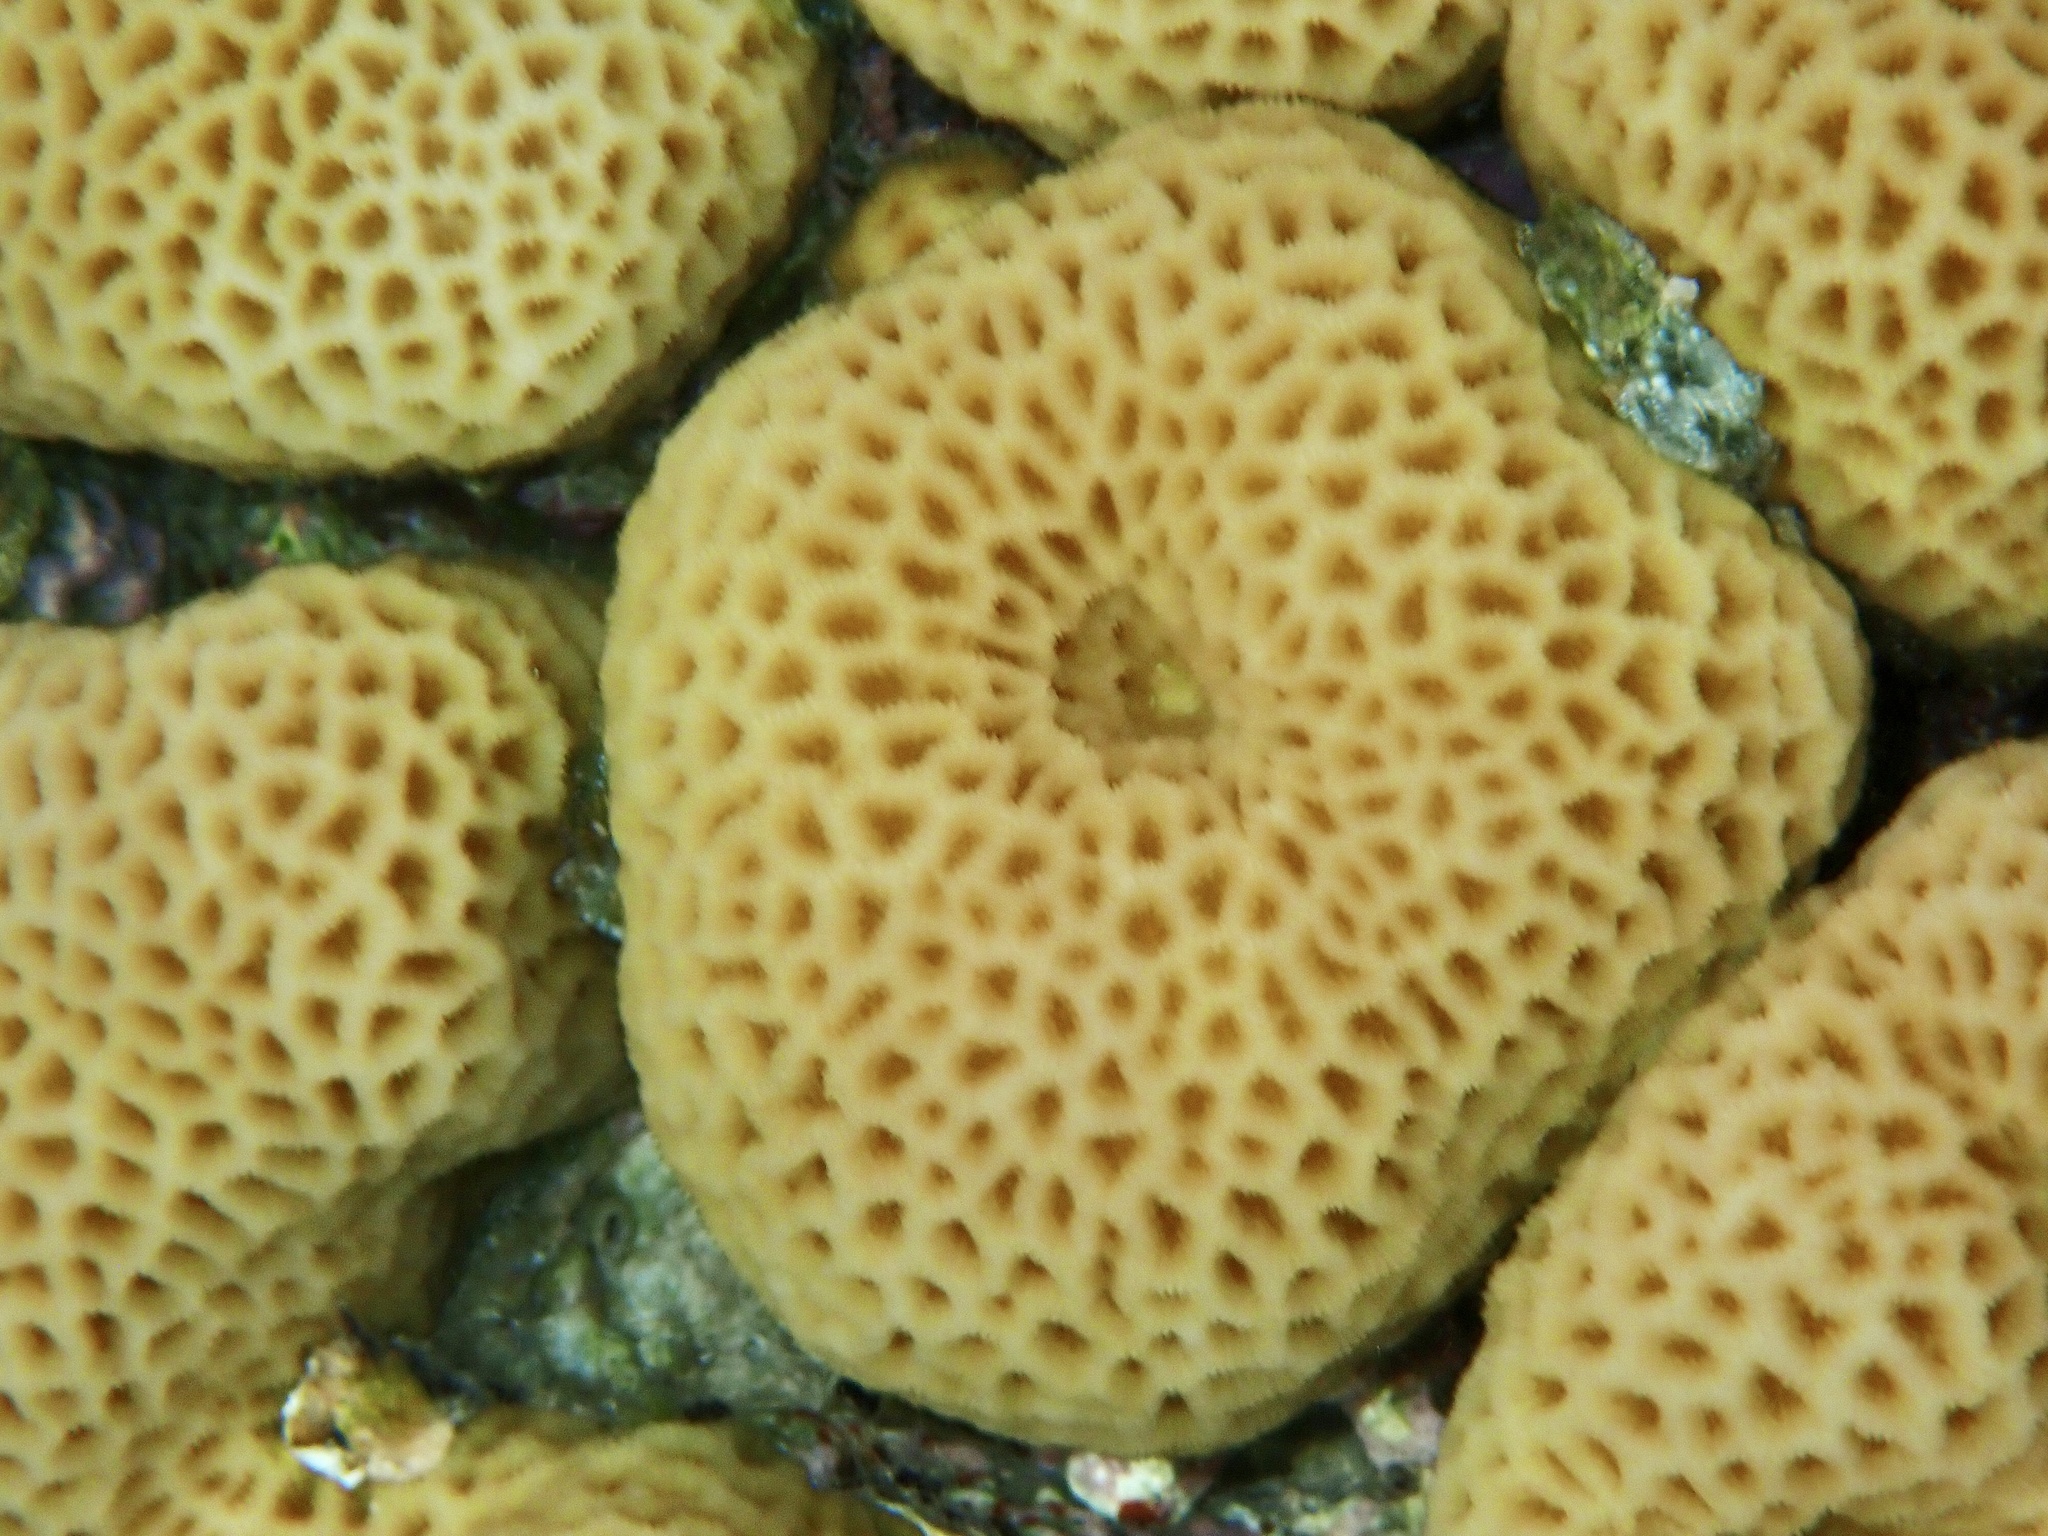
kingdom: Animalia
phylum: Cnidaria
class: Anthozoa
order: Scleractinia
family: Merulinidae
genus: Goniastrea
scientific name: Goniastrea pectinata
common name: Lesser star coral
